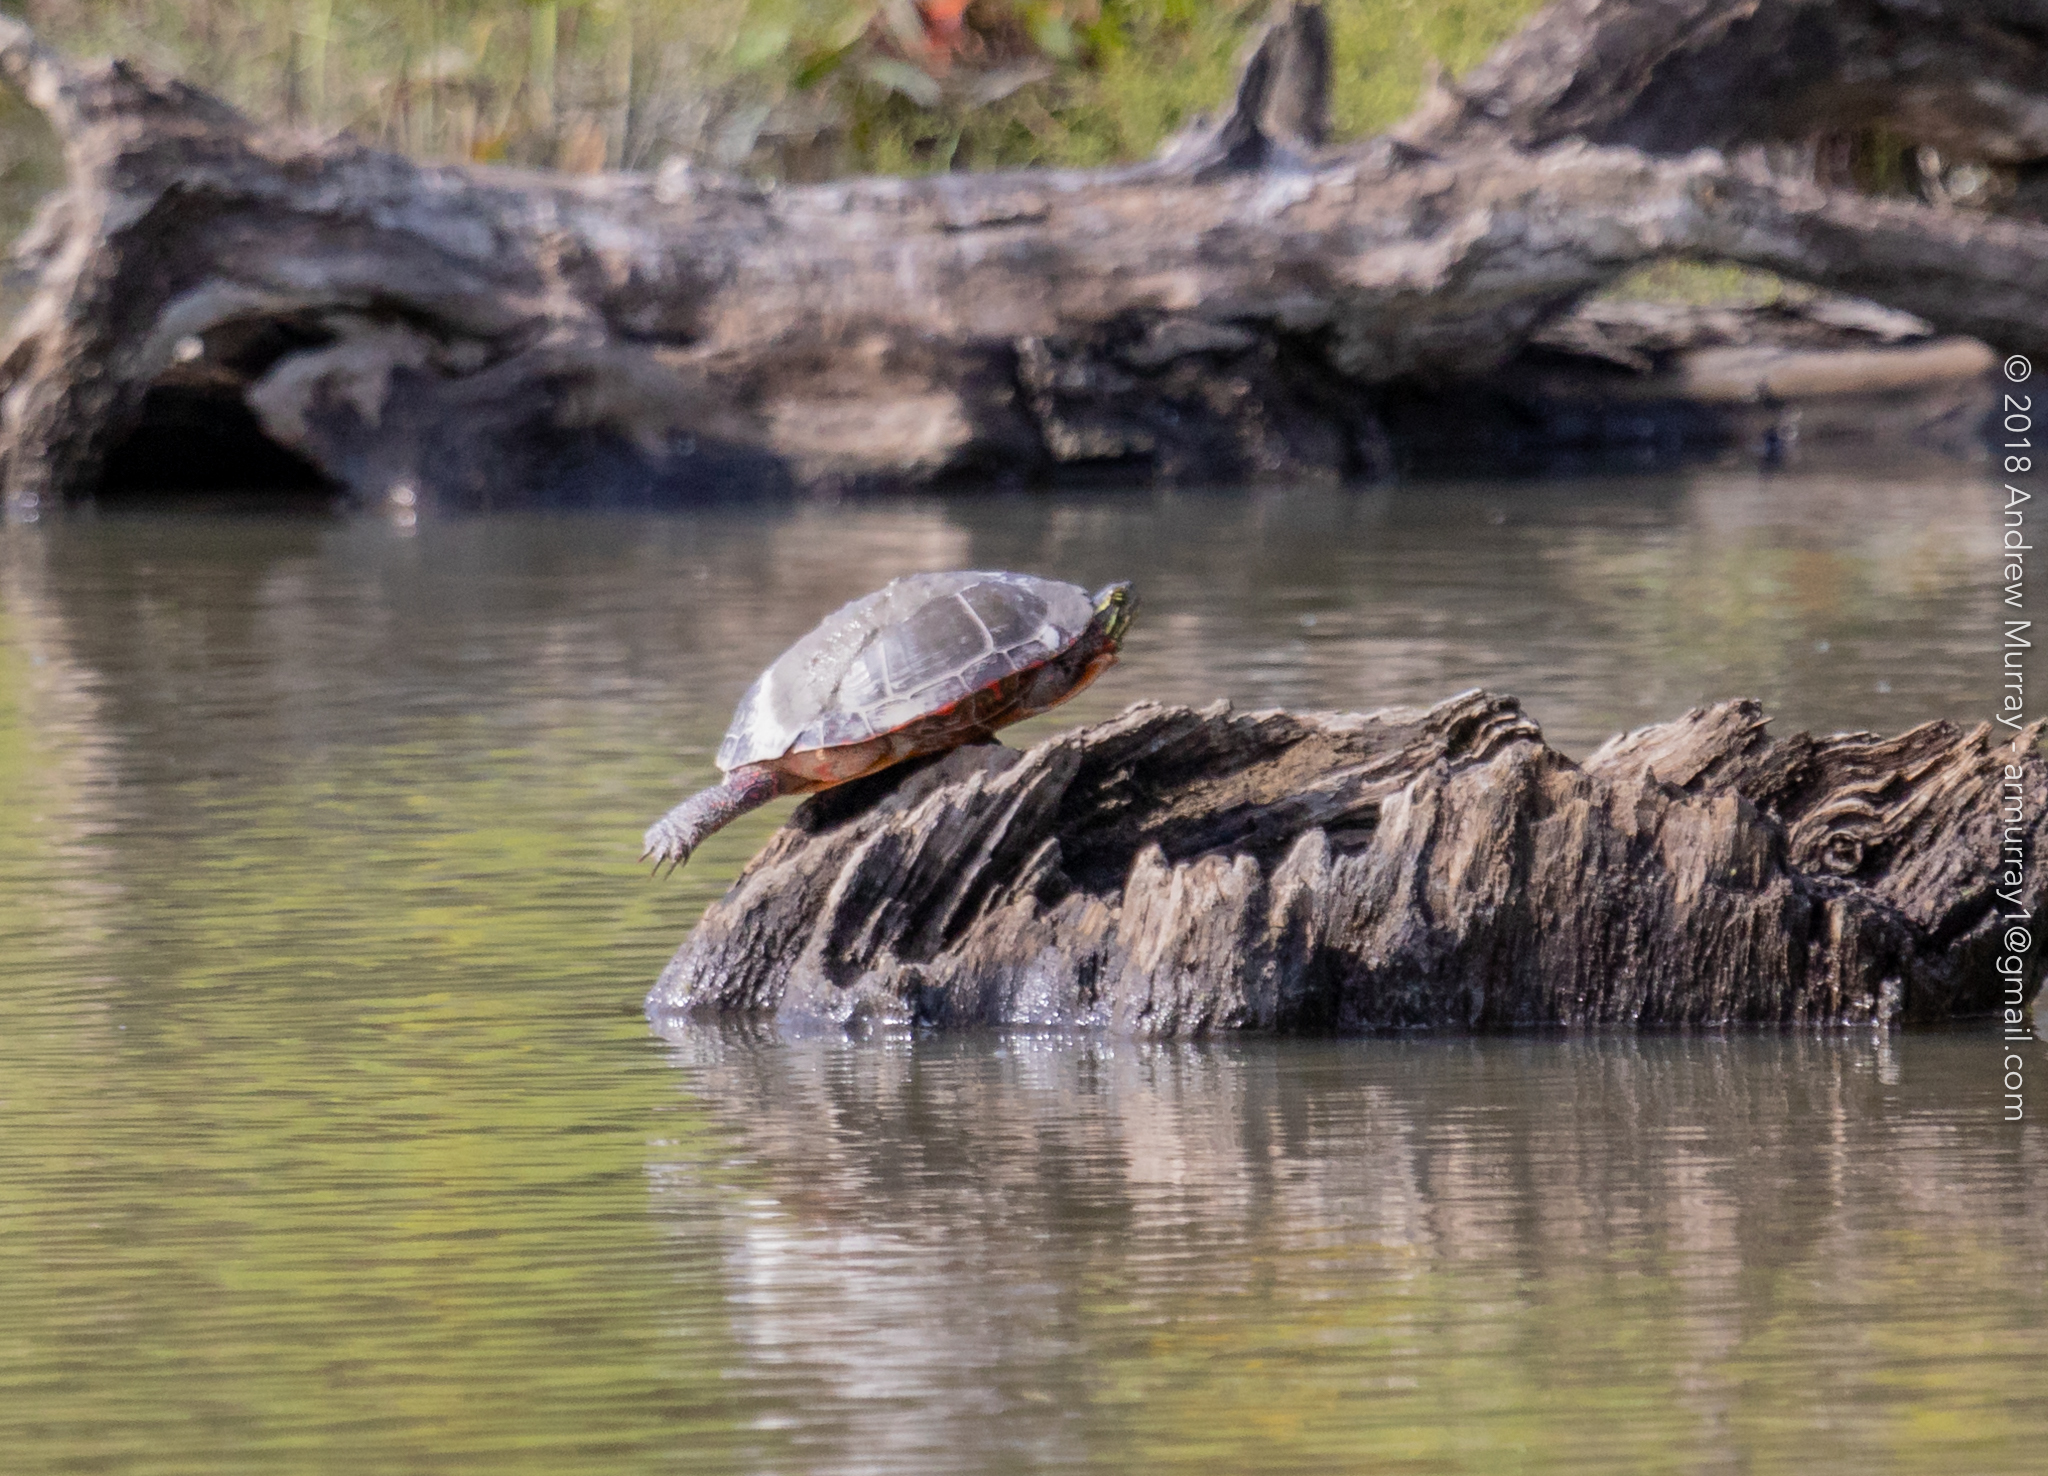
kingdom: Animalia
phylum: Chordata
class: Testudines
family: Emydidae
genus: Chrysemys
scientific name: Chrysemys picta
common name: Painted turtle
